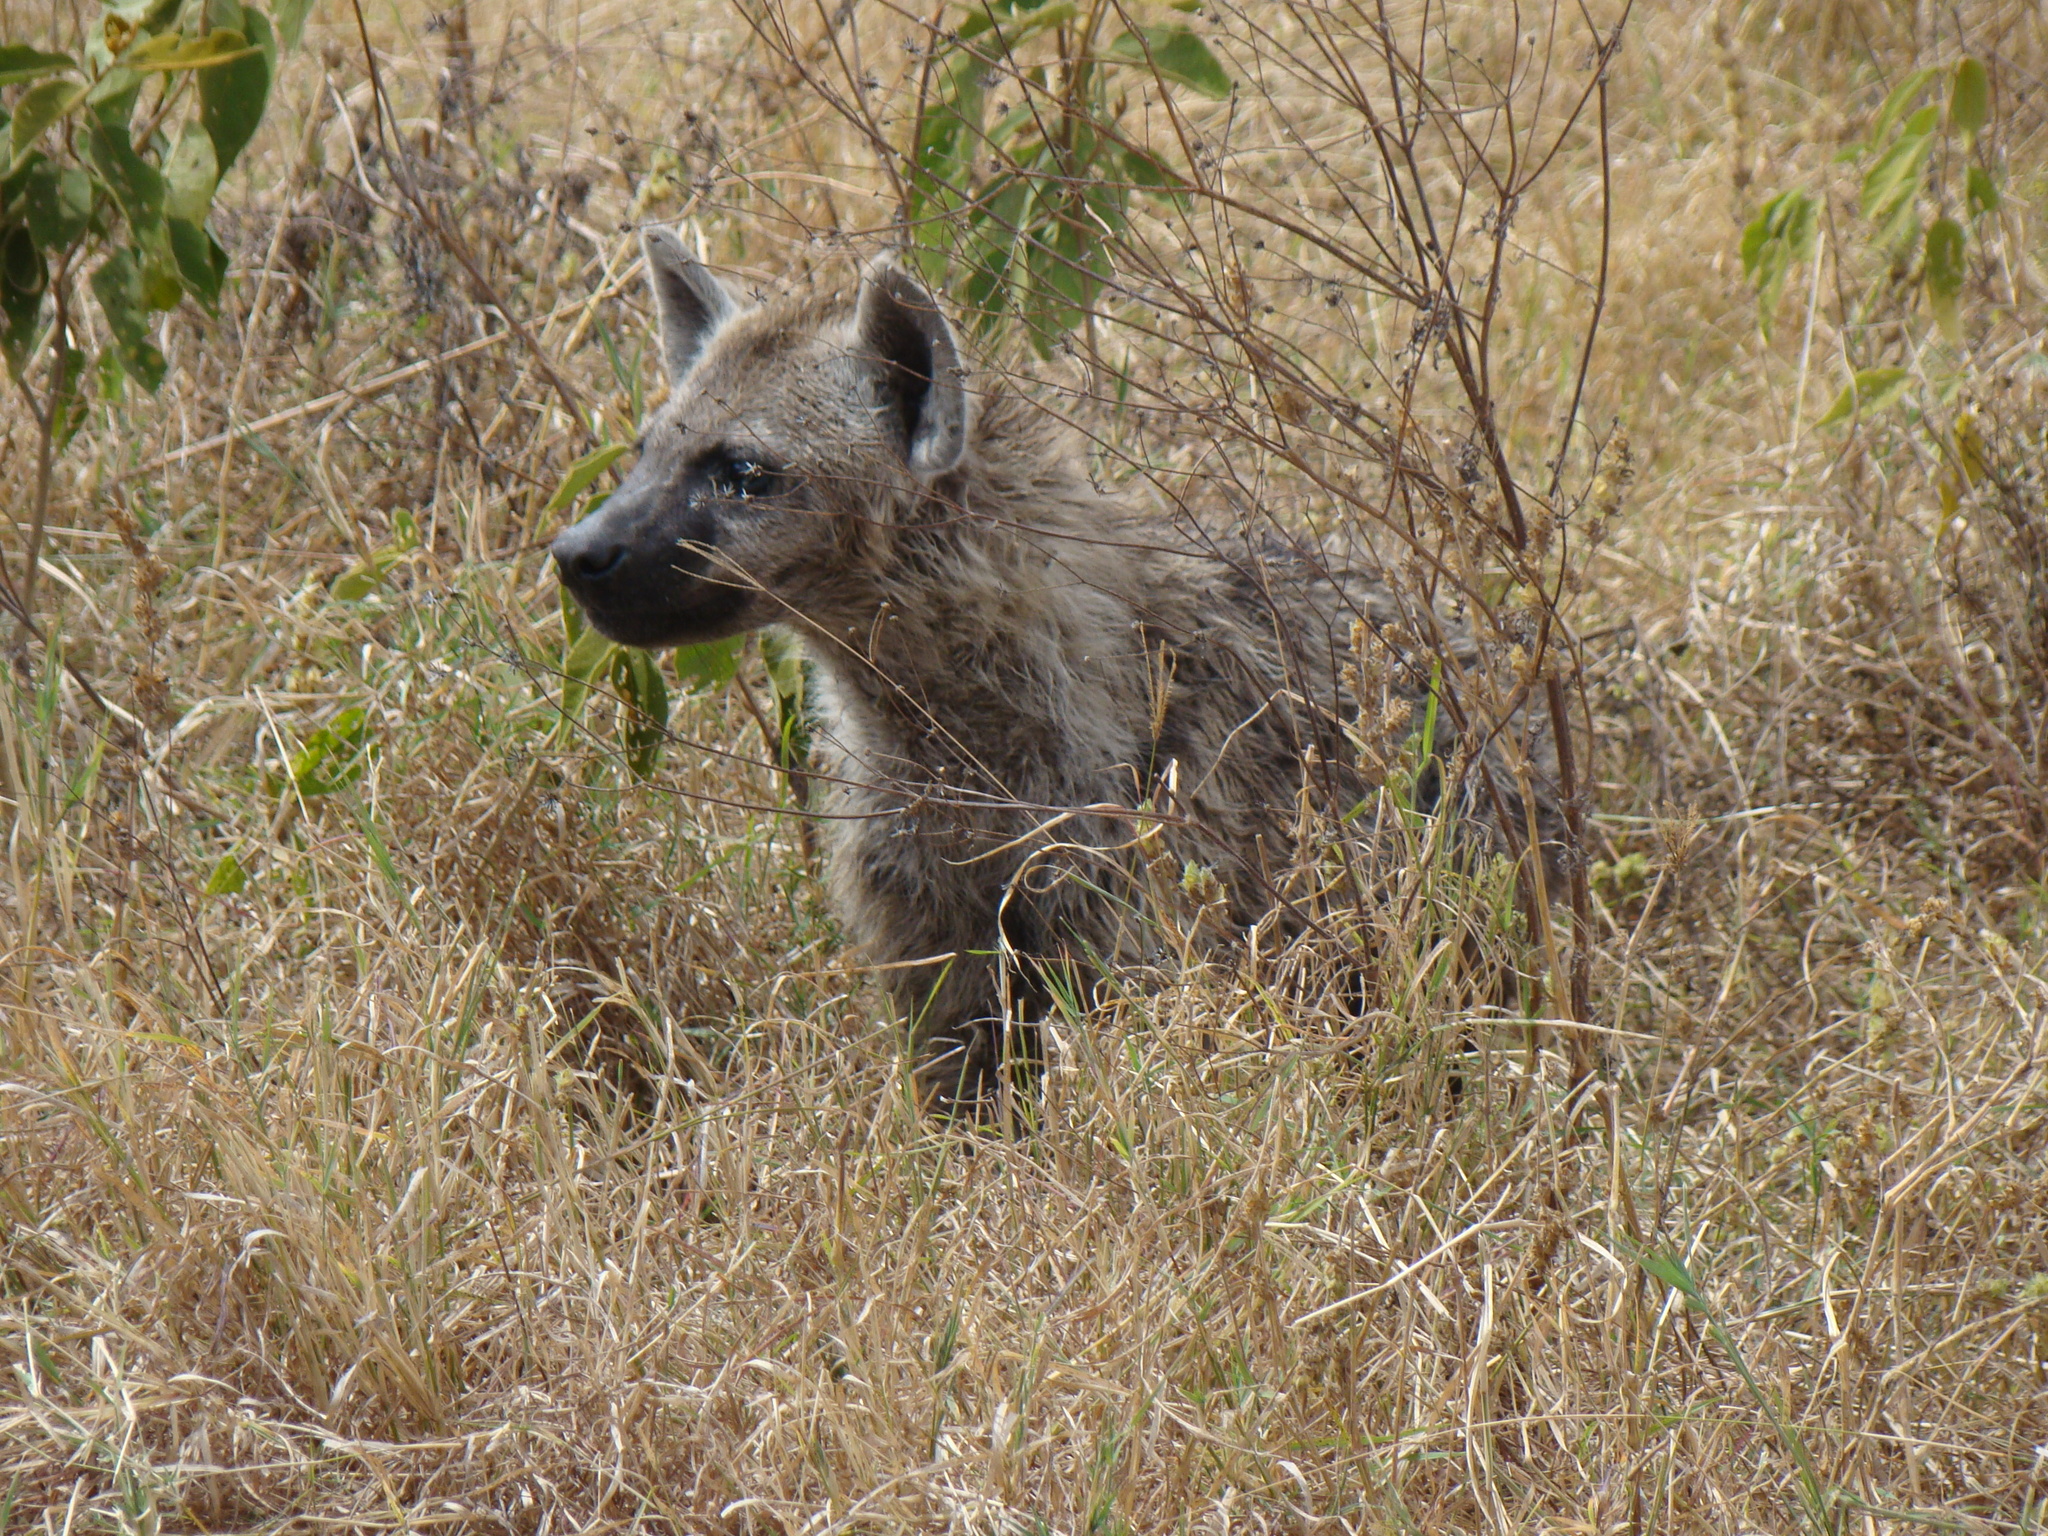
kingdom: Animalia
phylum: Chordata
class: Mammalia
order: Carnivora
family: Hyaenidae
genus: Crocuta
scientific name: Crocuta crocuta
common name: Spotted hyaena
